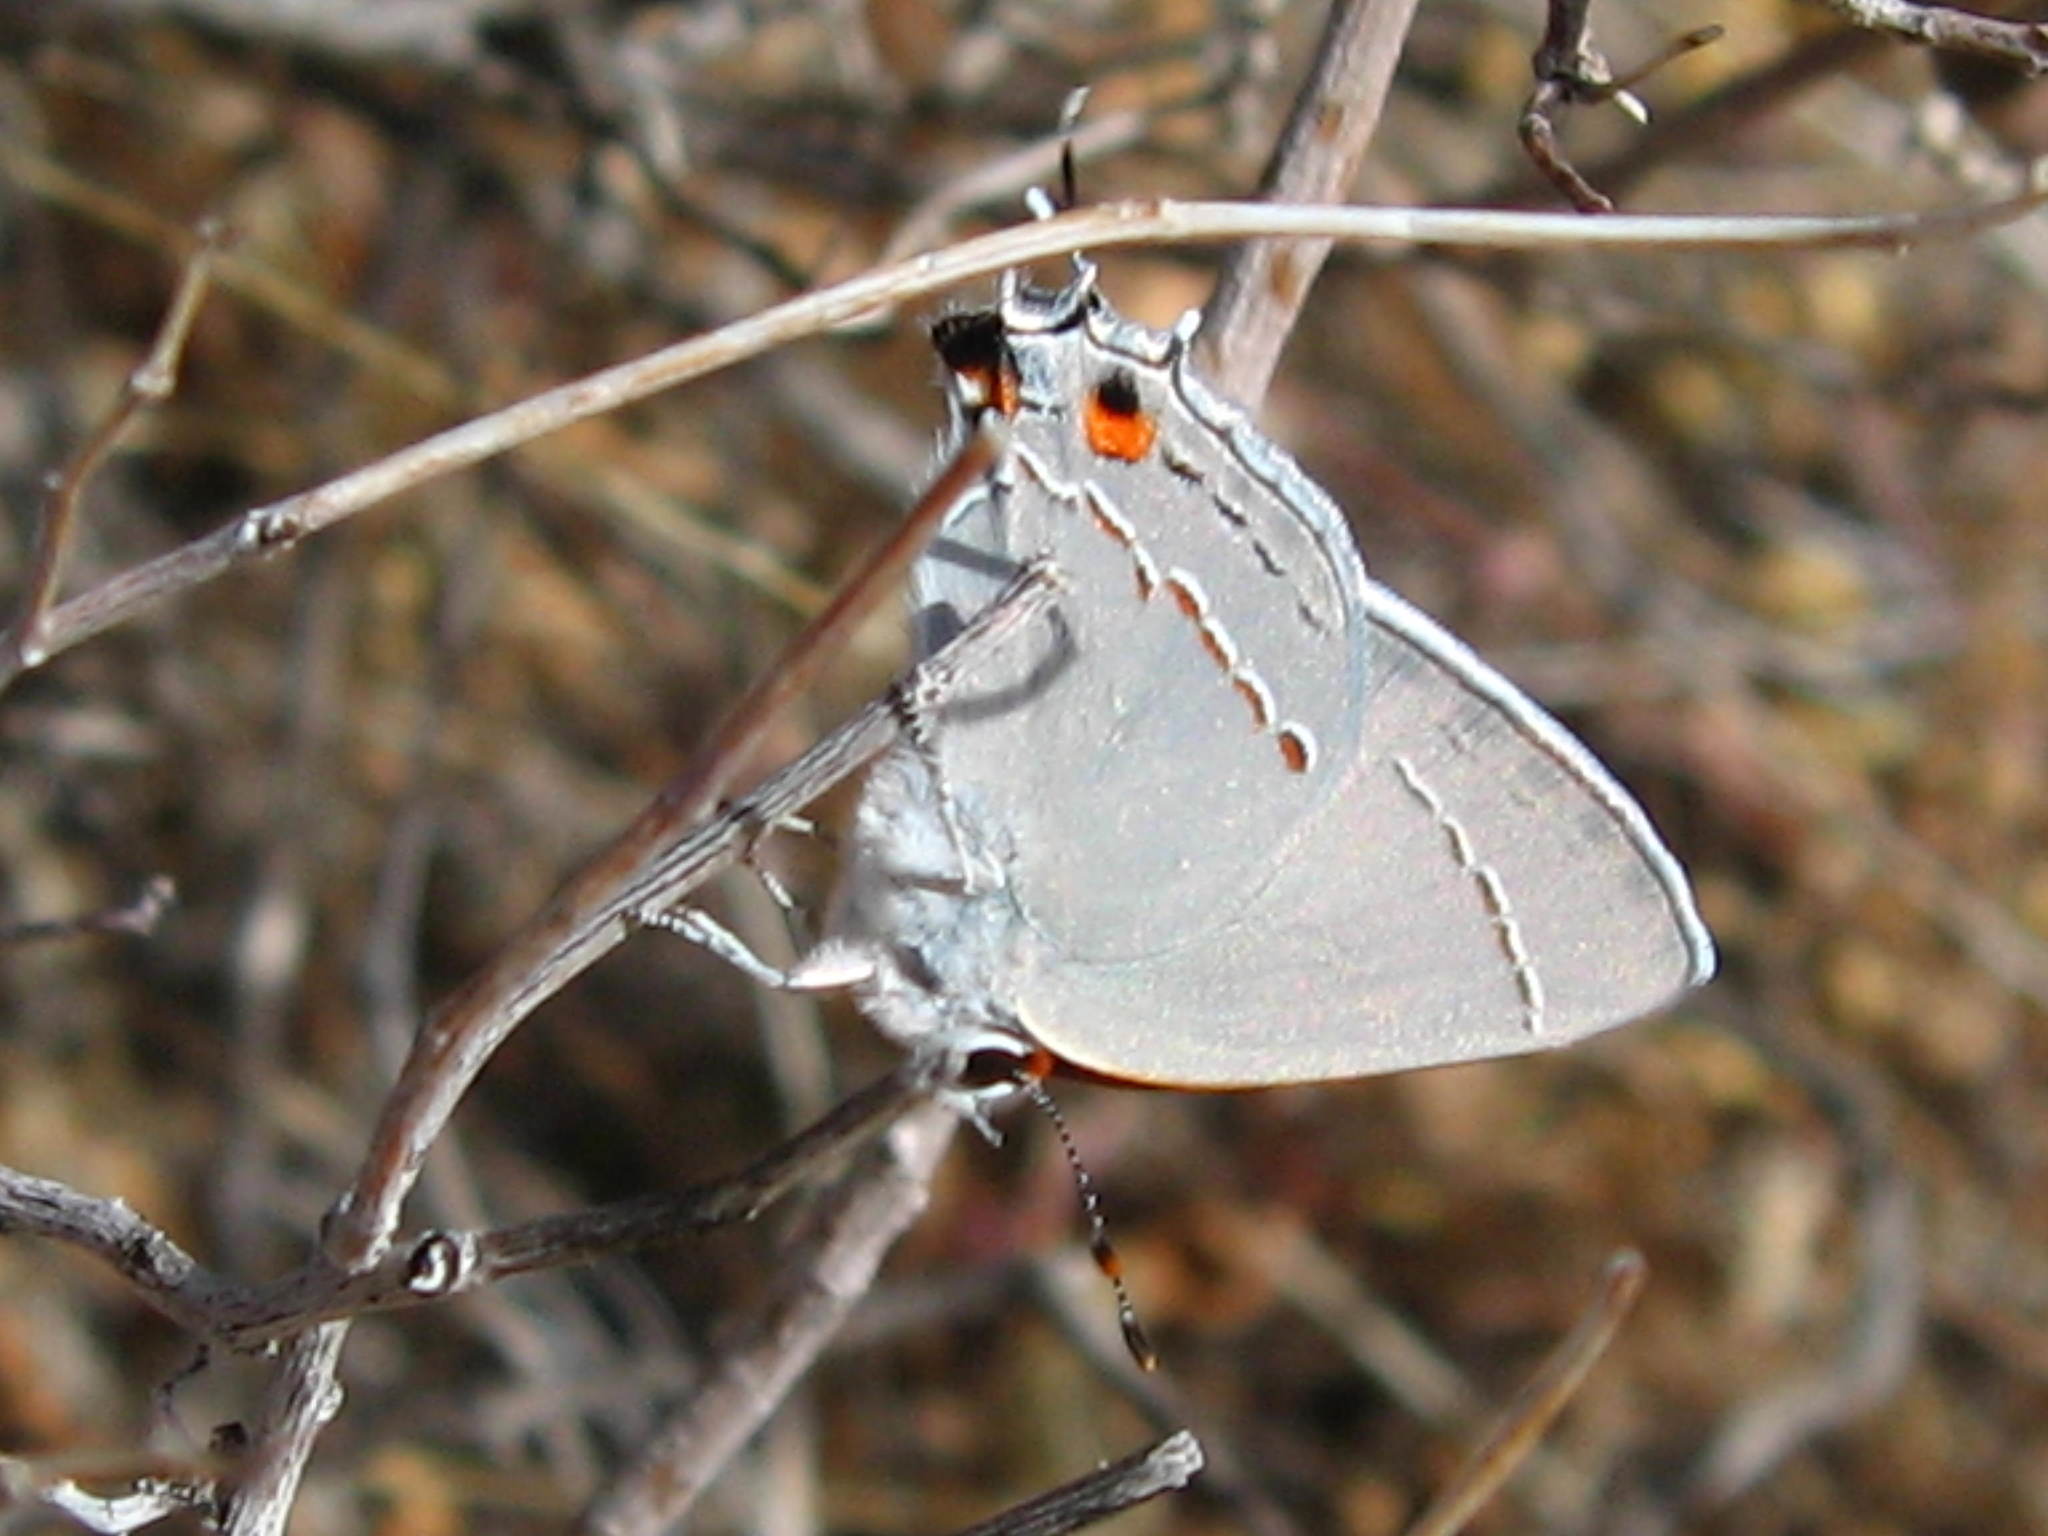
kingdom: Animalia
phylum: Arthropoda
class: Insecta
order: Lepidoptera
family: Lycaenidae
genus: Strymon
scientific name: Strymon melinus
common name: Gray hairstreak
